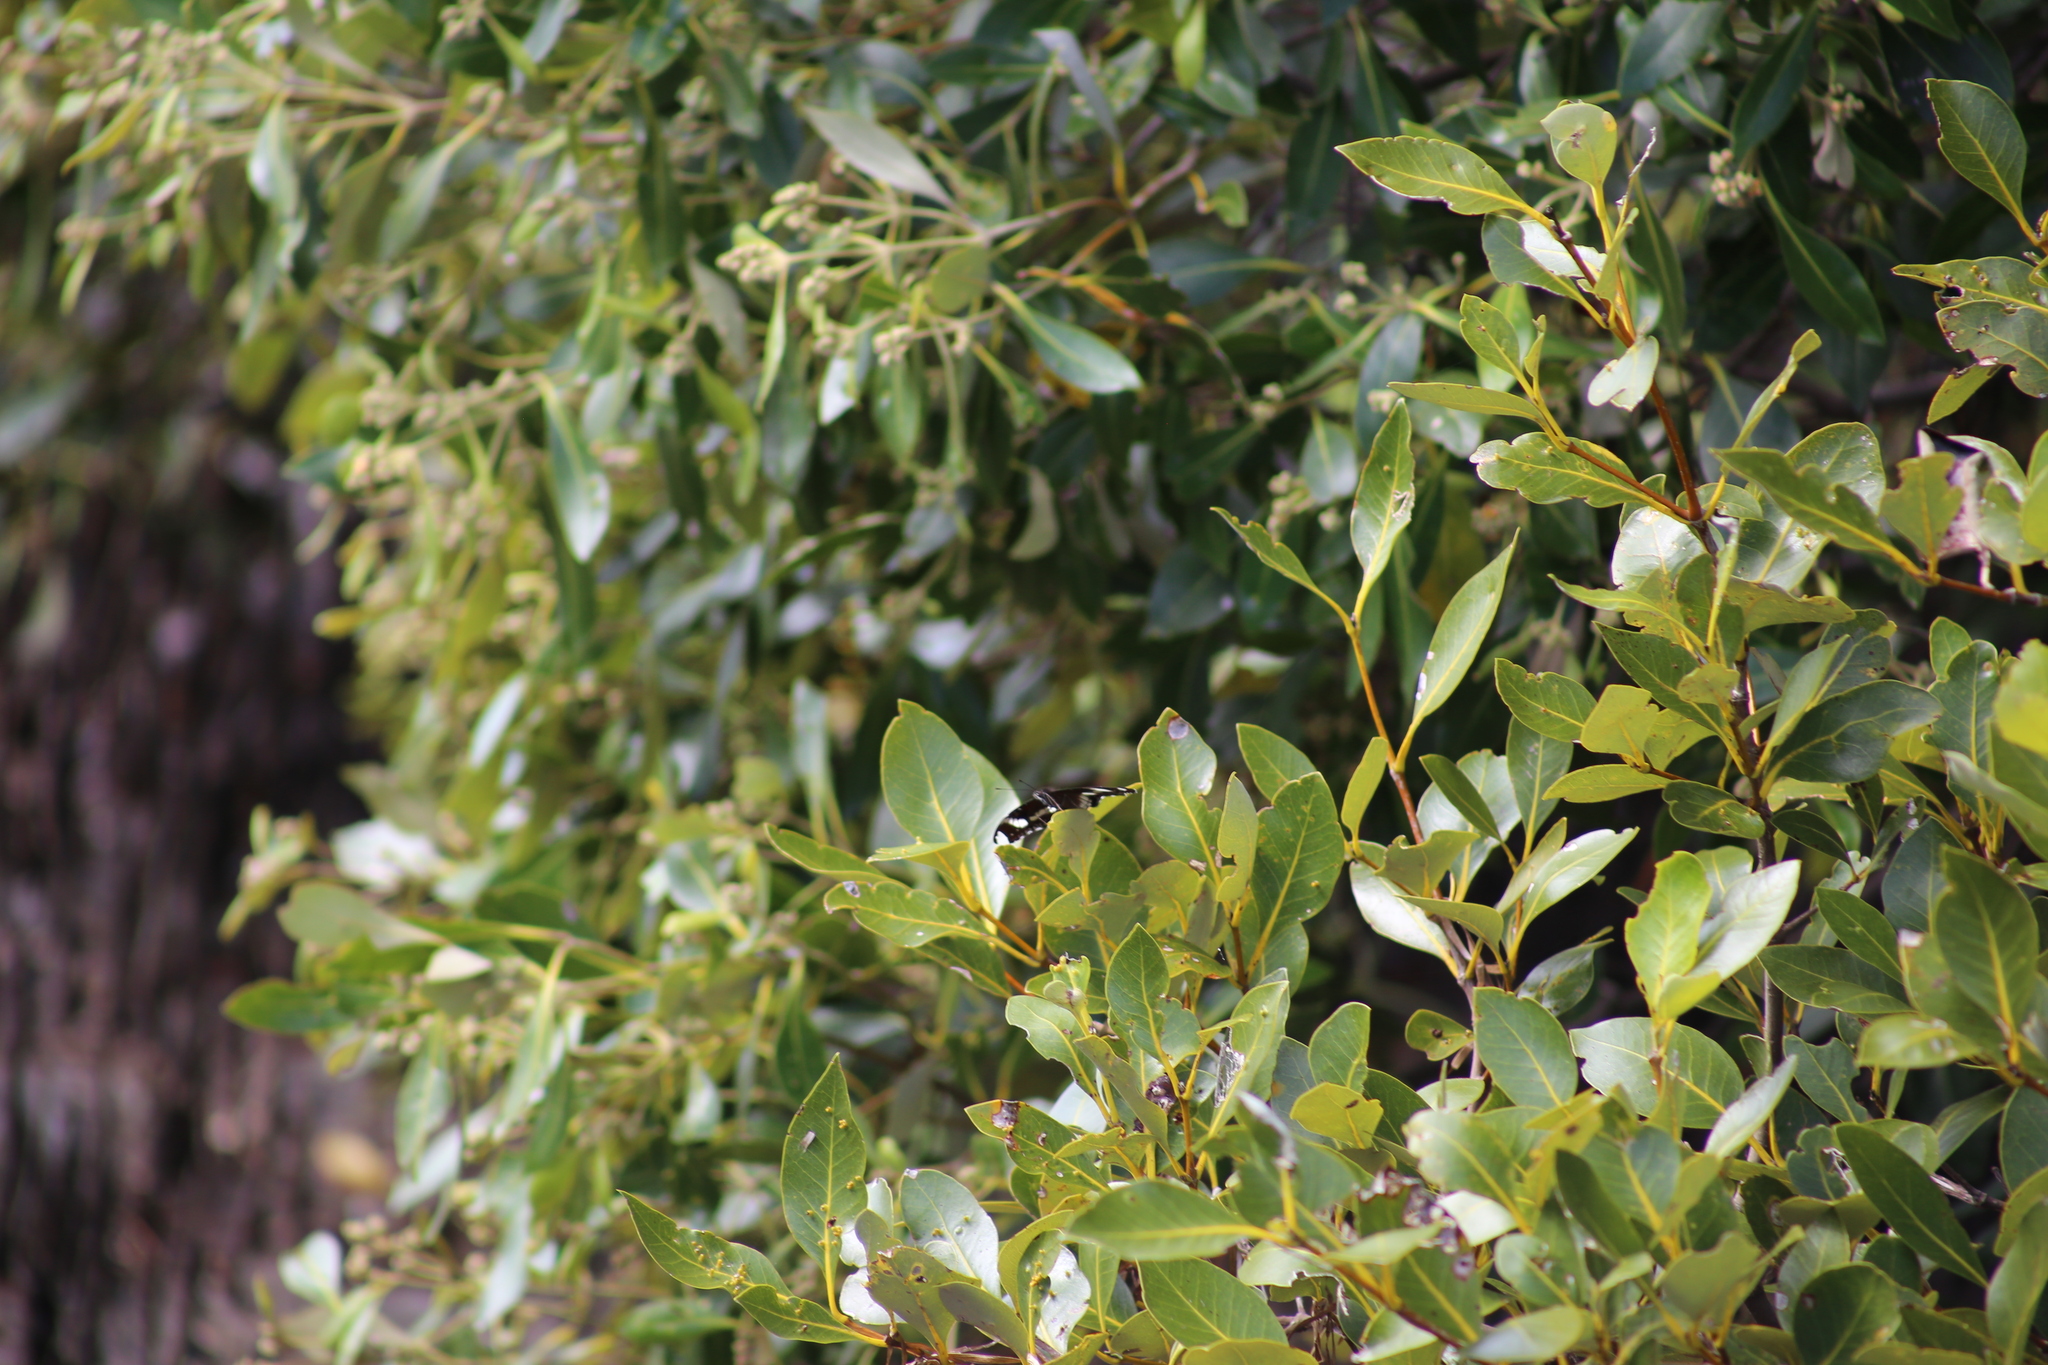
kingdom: Animalia
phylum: Arthropoda
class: Insecta
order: Lepidoptera
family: Nymphalidae
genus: Hypolimnas
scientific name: Hypolimnas bolina
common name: Great eggfly
